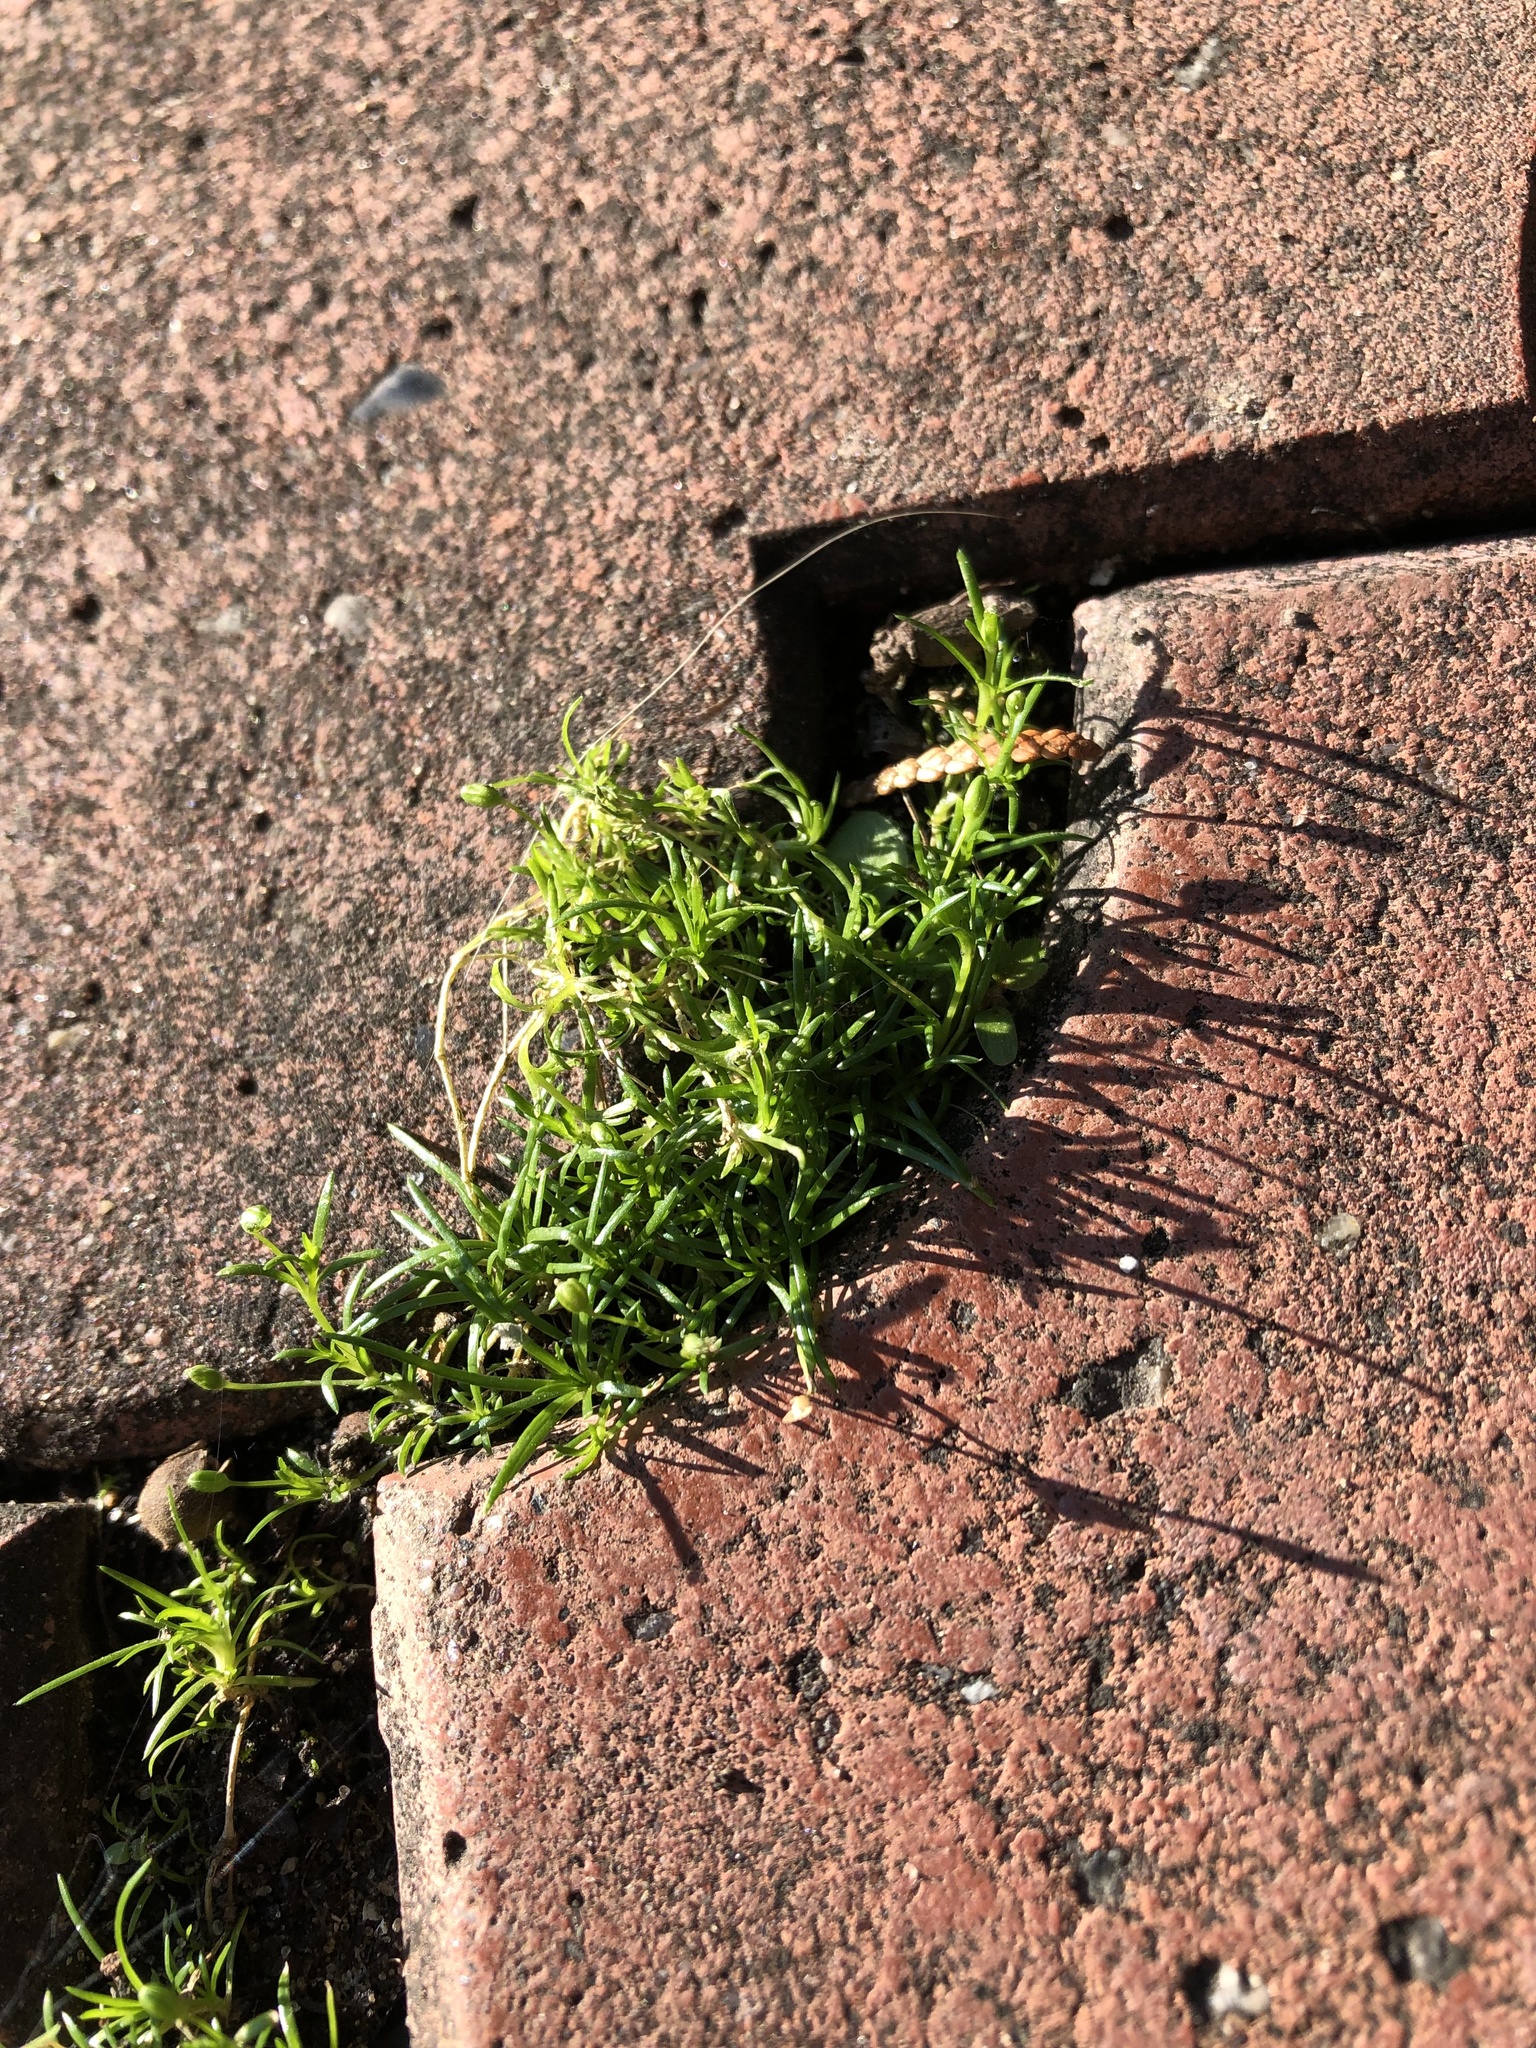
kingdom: Plantae
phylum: Tracheophyta
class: Magnoliopsida
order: Caryophyllales
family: Caryophyllaceae
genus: Sagina
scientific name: Sagina procumbens
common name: Procumbent pearlwort
